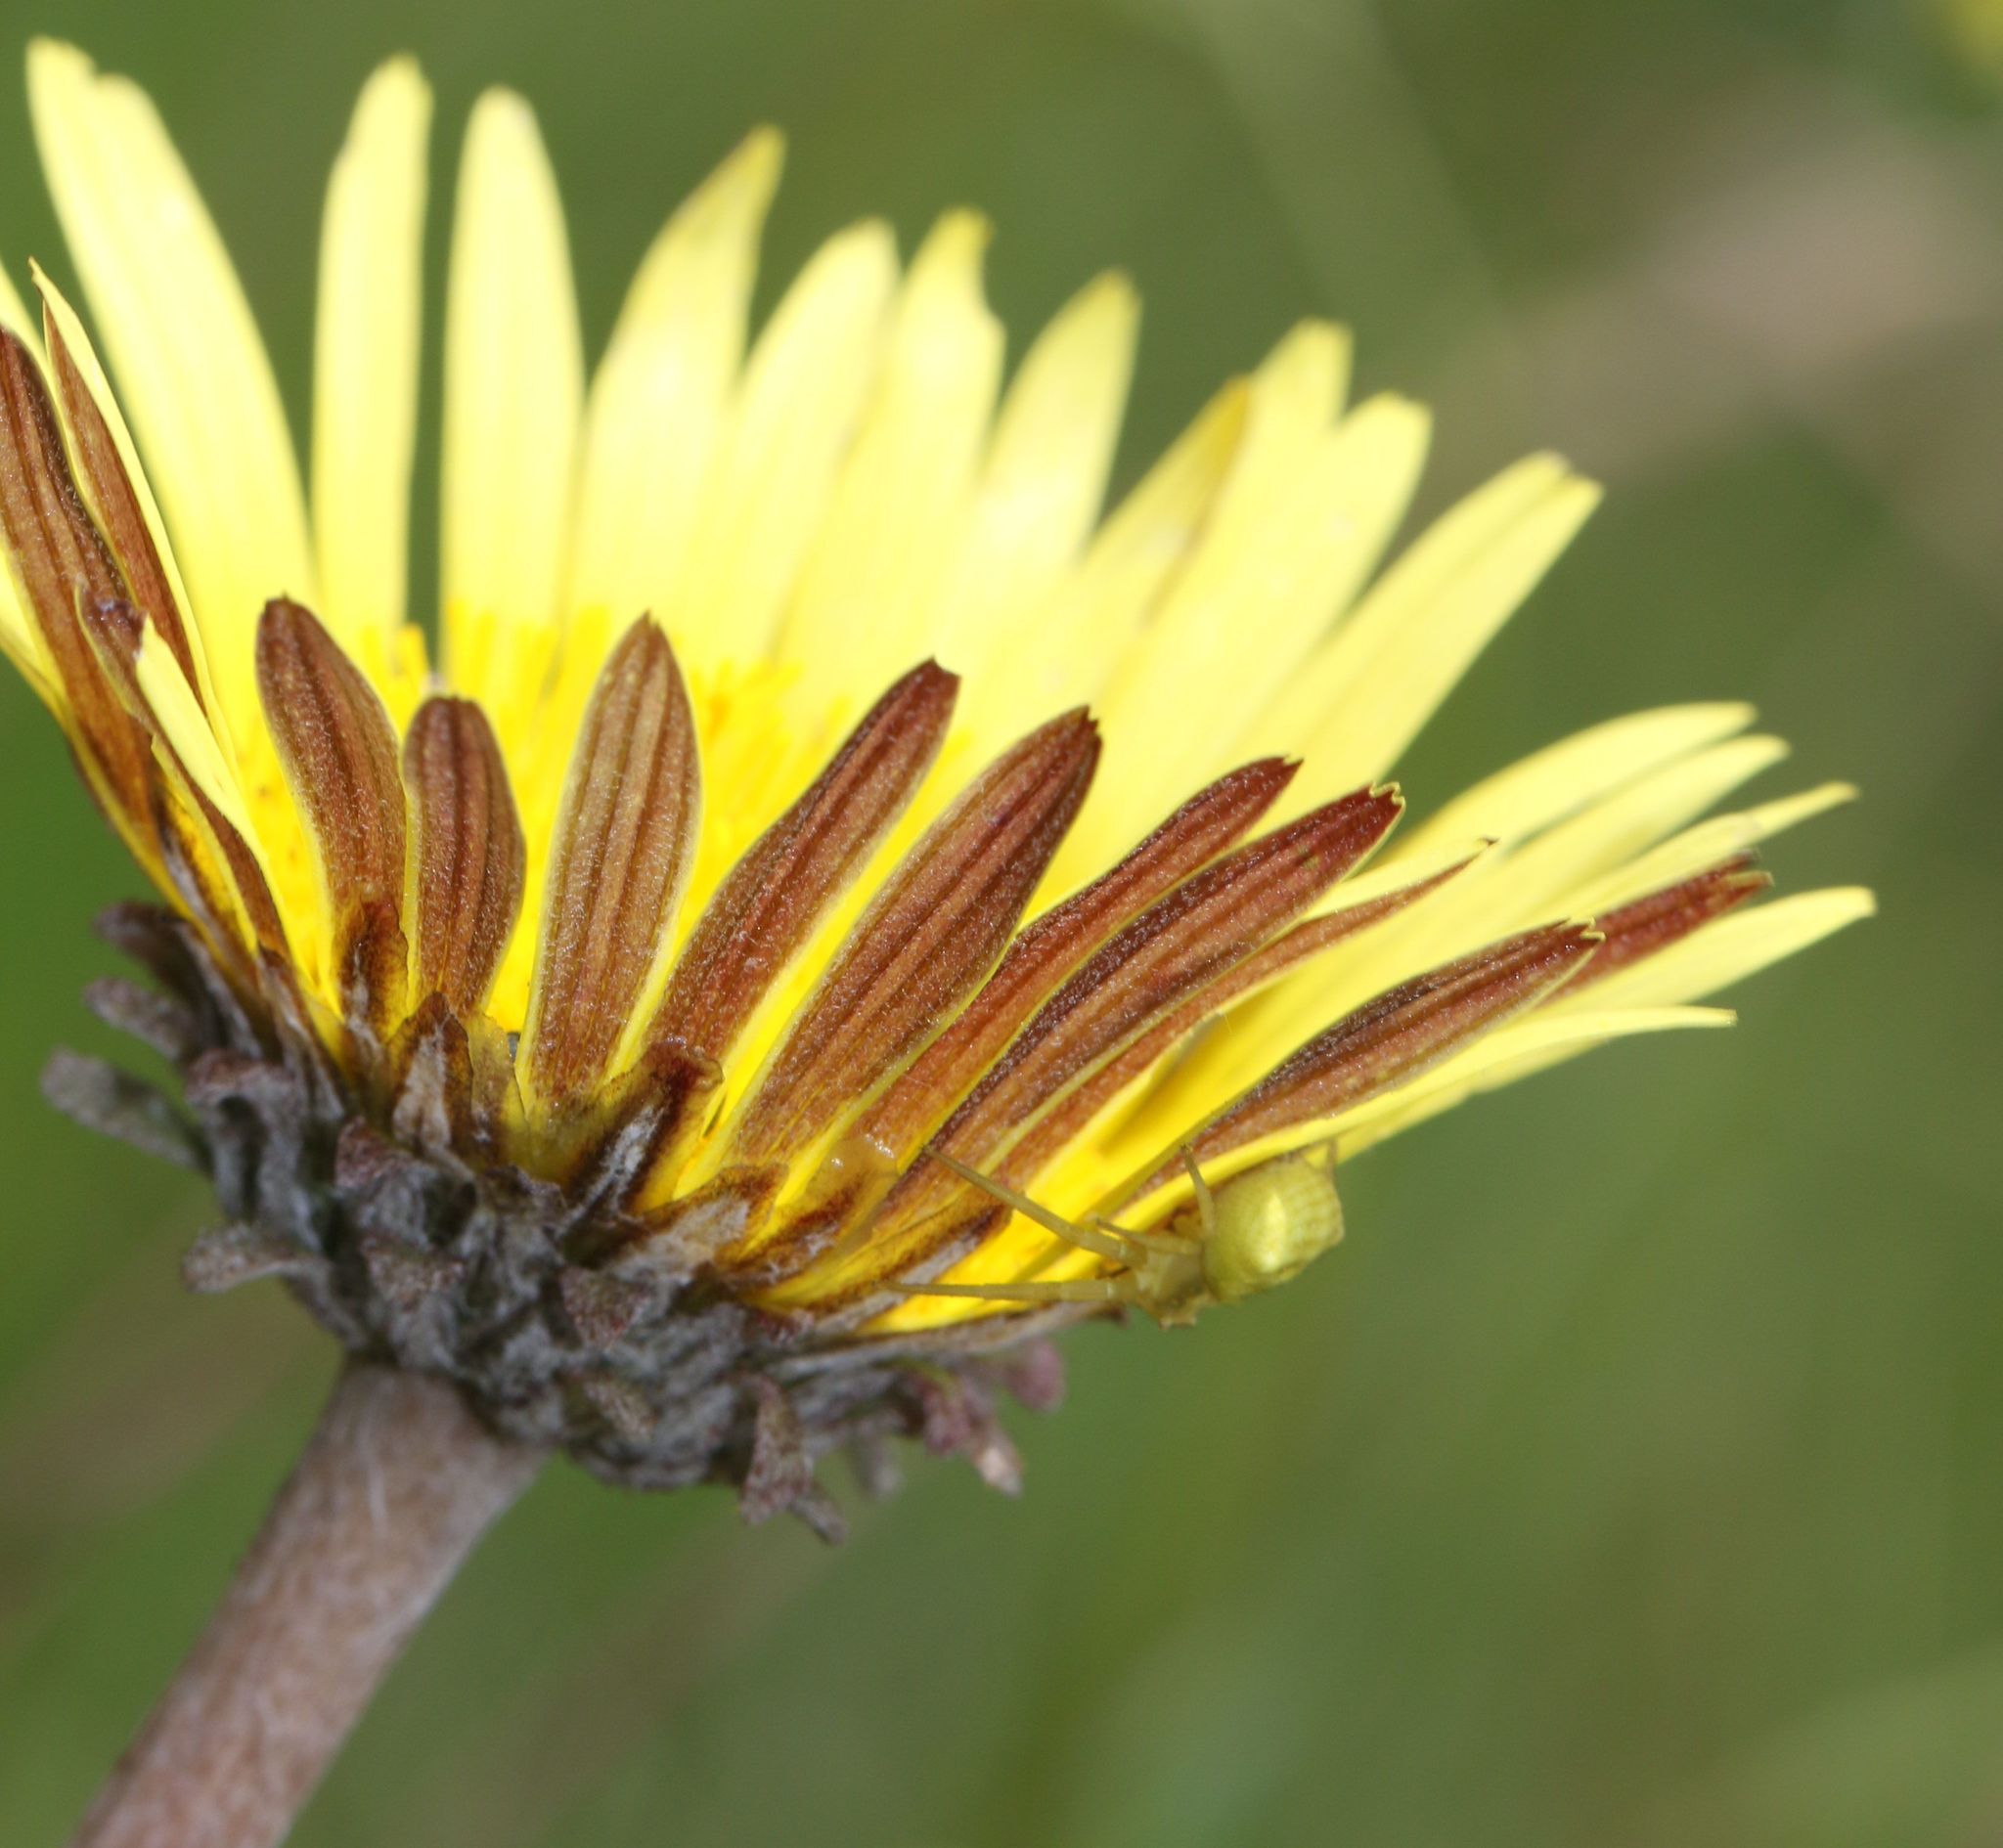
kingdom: Plantae
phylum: Tracheophyta
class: Magnoliopsida
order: Asterales
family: Asteraceae
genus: Haplocarpha
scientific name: Haplocarpha scaposa
